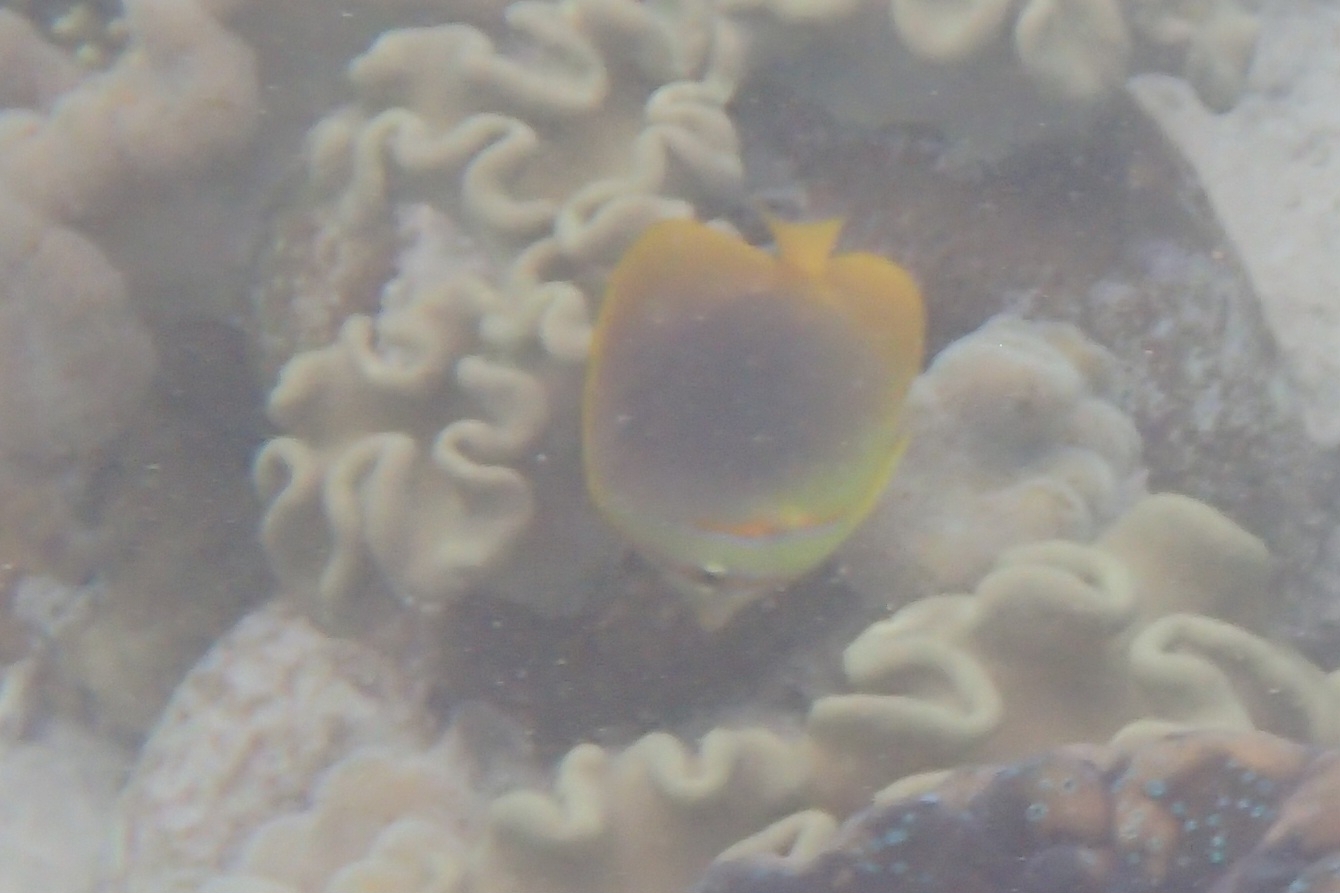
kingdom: Animalia
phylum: Chordata
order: Perciformes
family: Chaetodontidae
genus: Chaetodon
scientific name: Chaetodon aureofasciatus
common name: Golden butterflyfish
